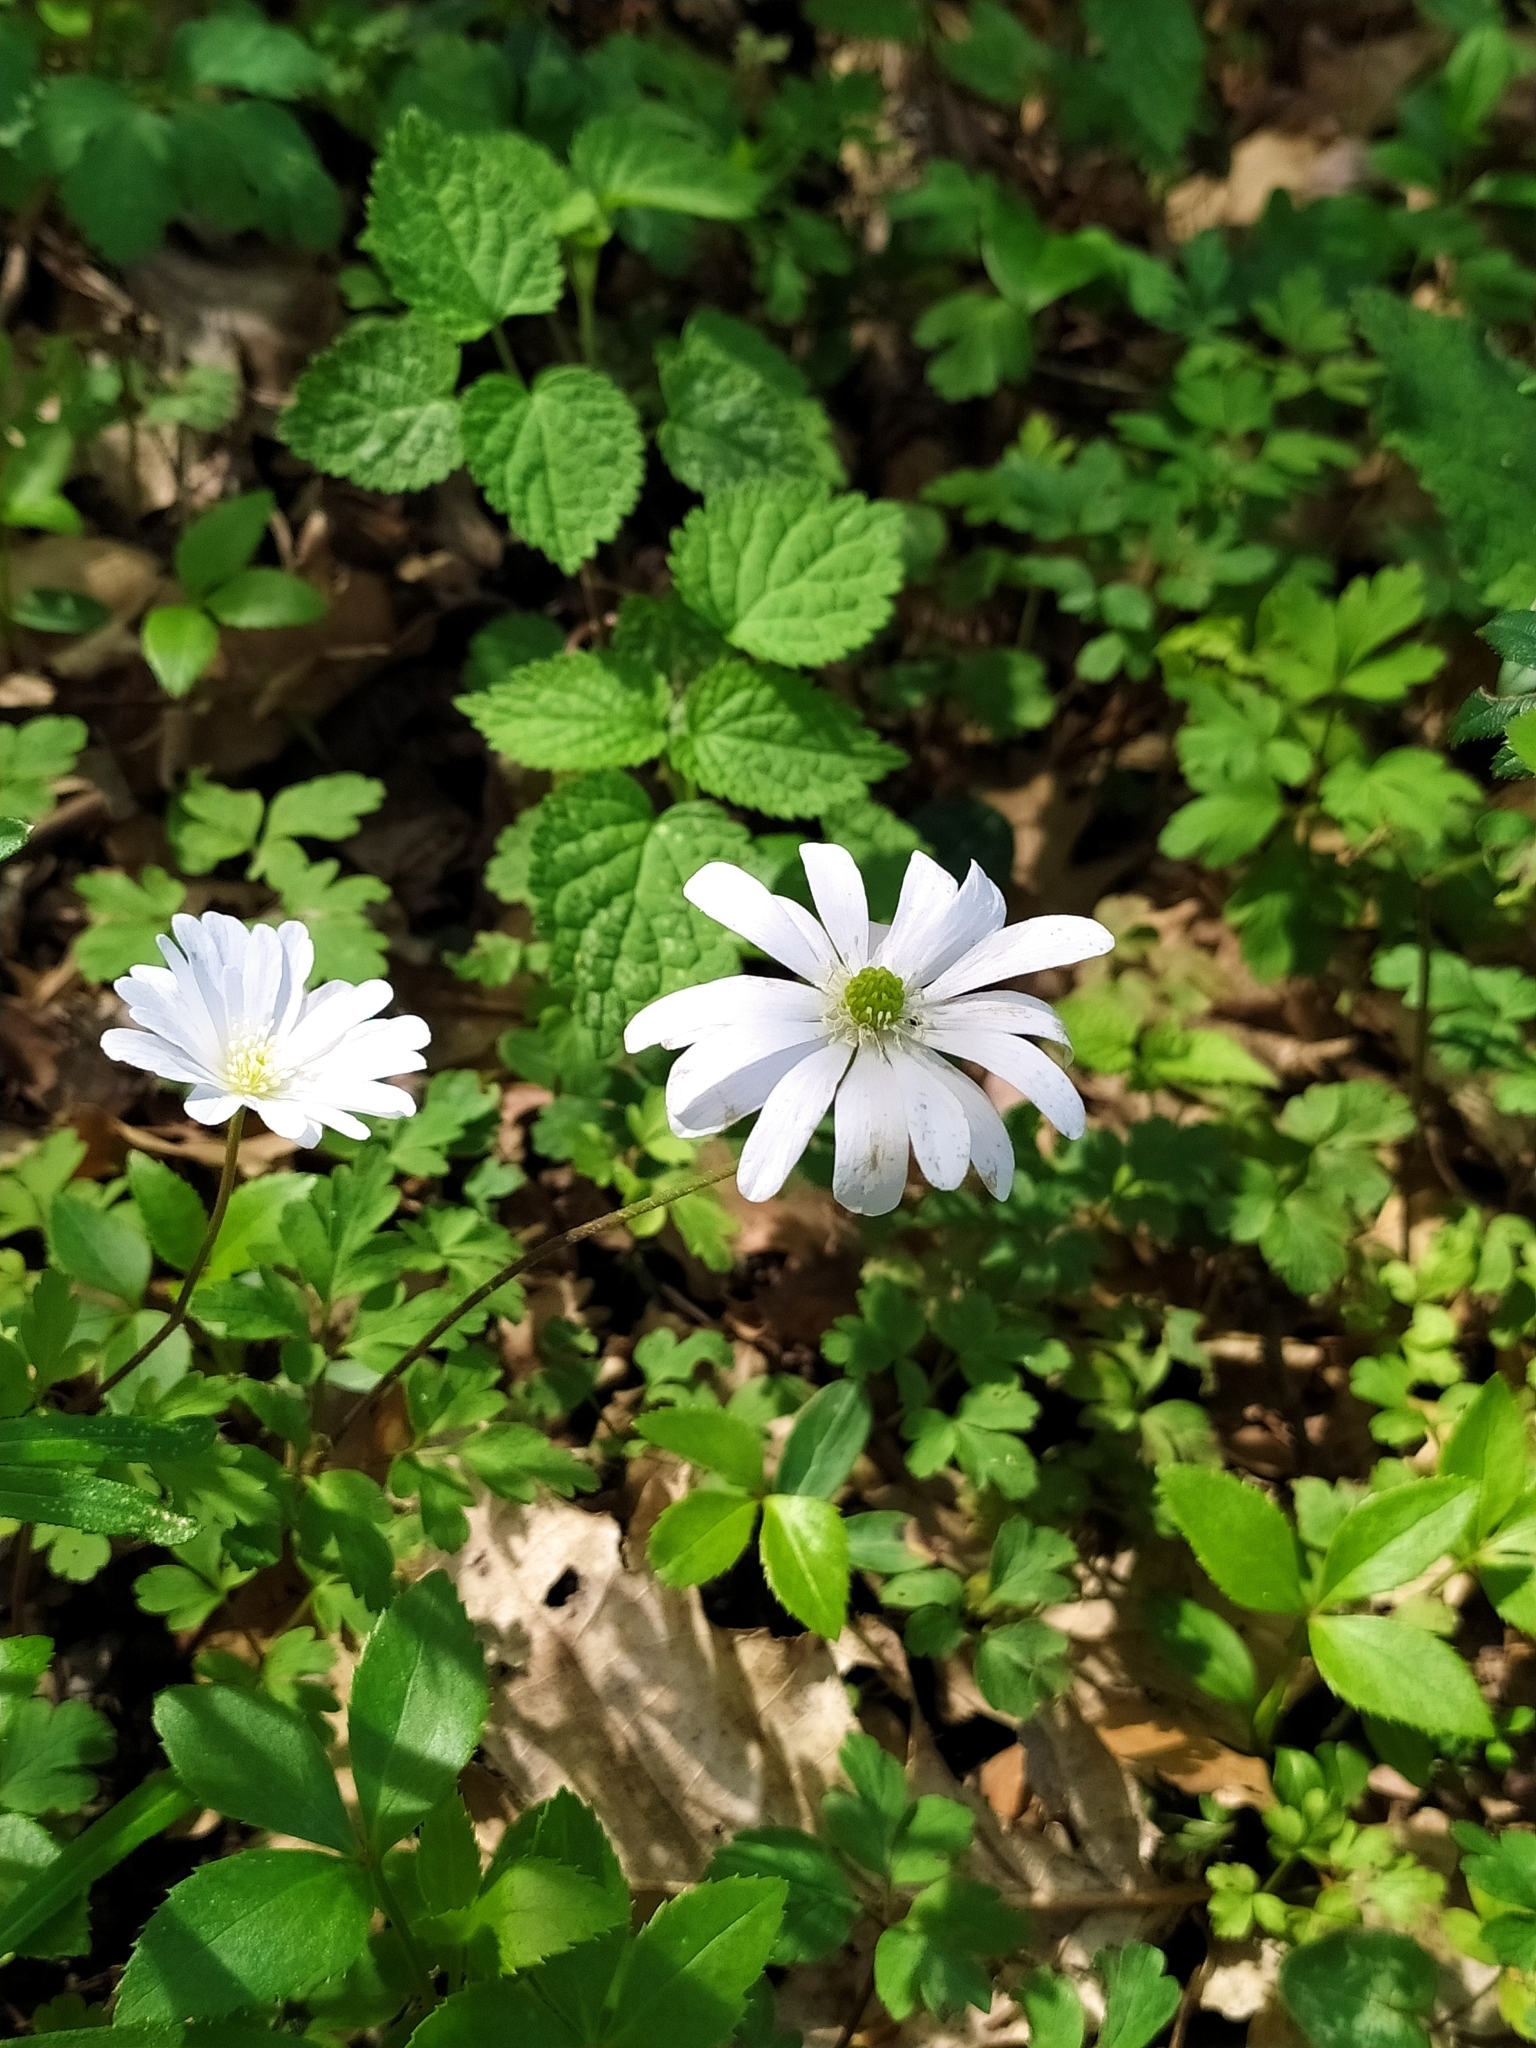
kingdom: Plantae
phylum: Tracheophyta
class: Magnoliopsida
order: Ranunculales
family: Ranunculaceae
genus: Anemone
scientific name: Anemone apennina
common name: Blue anemone
